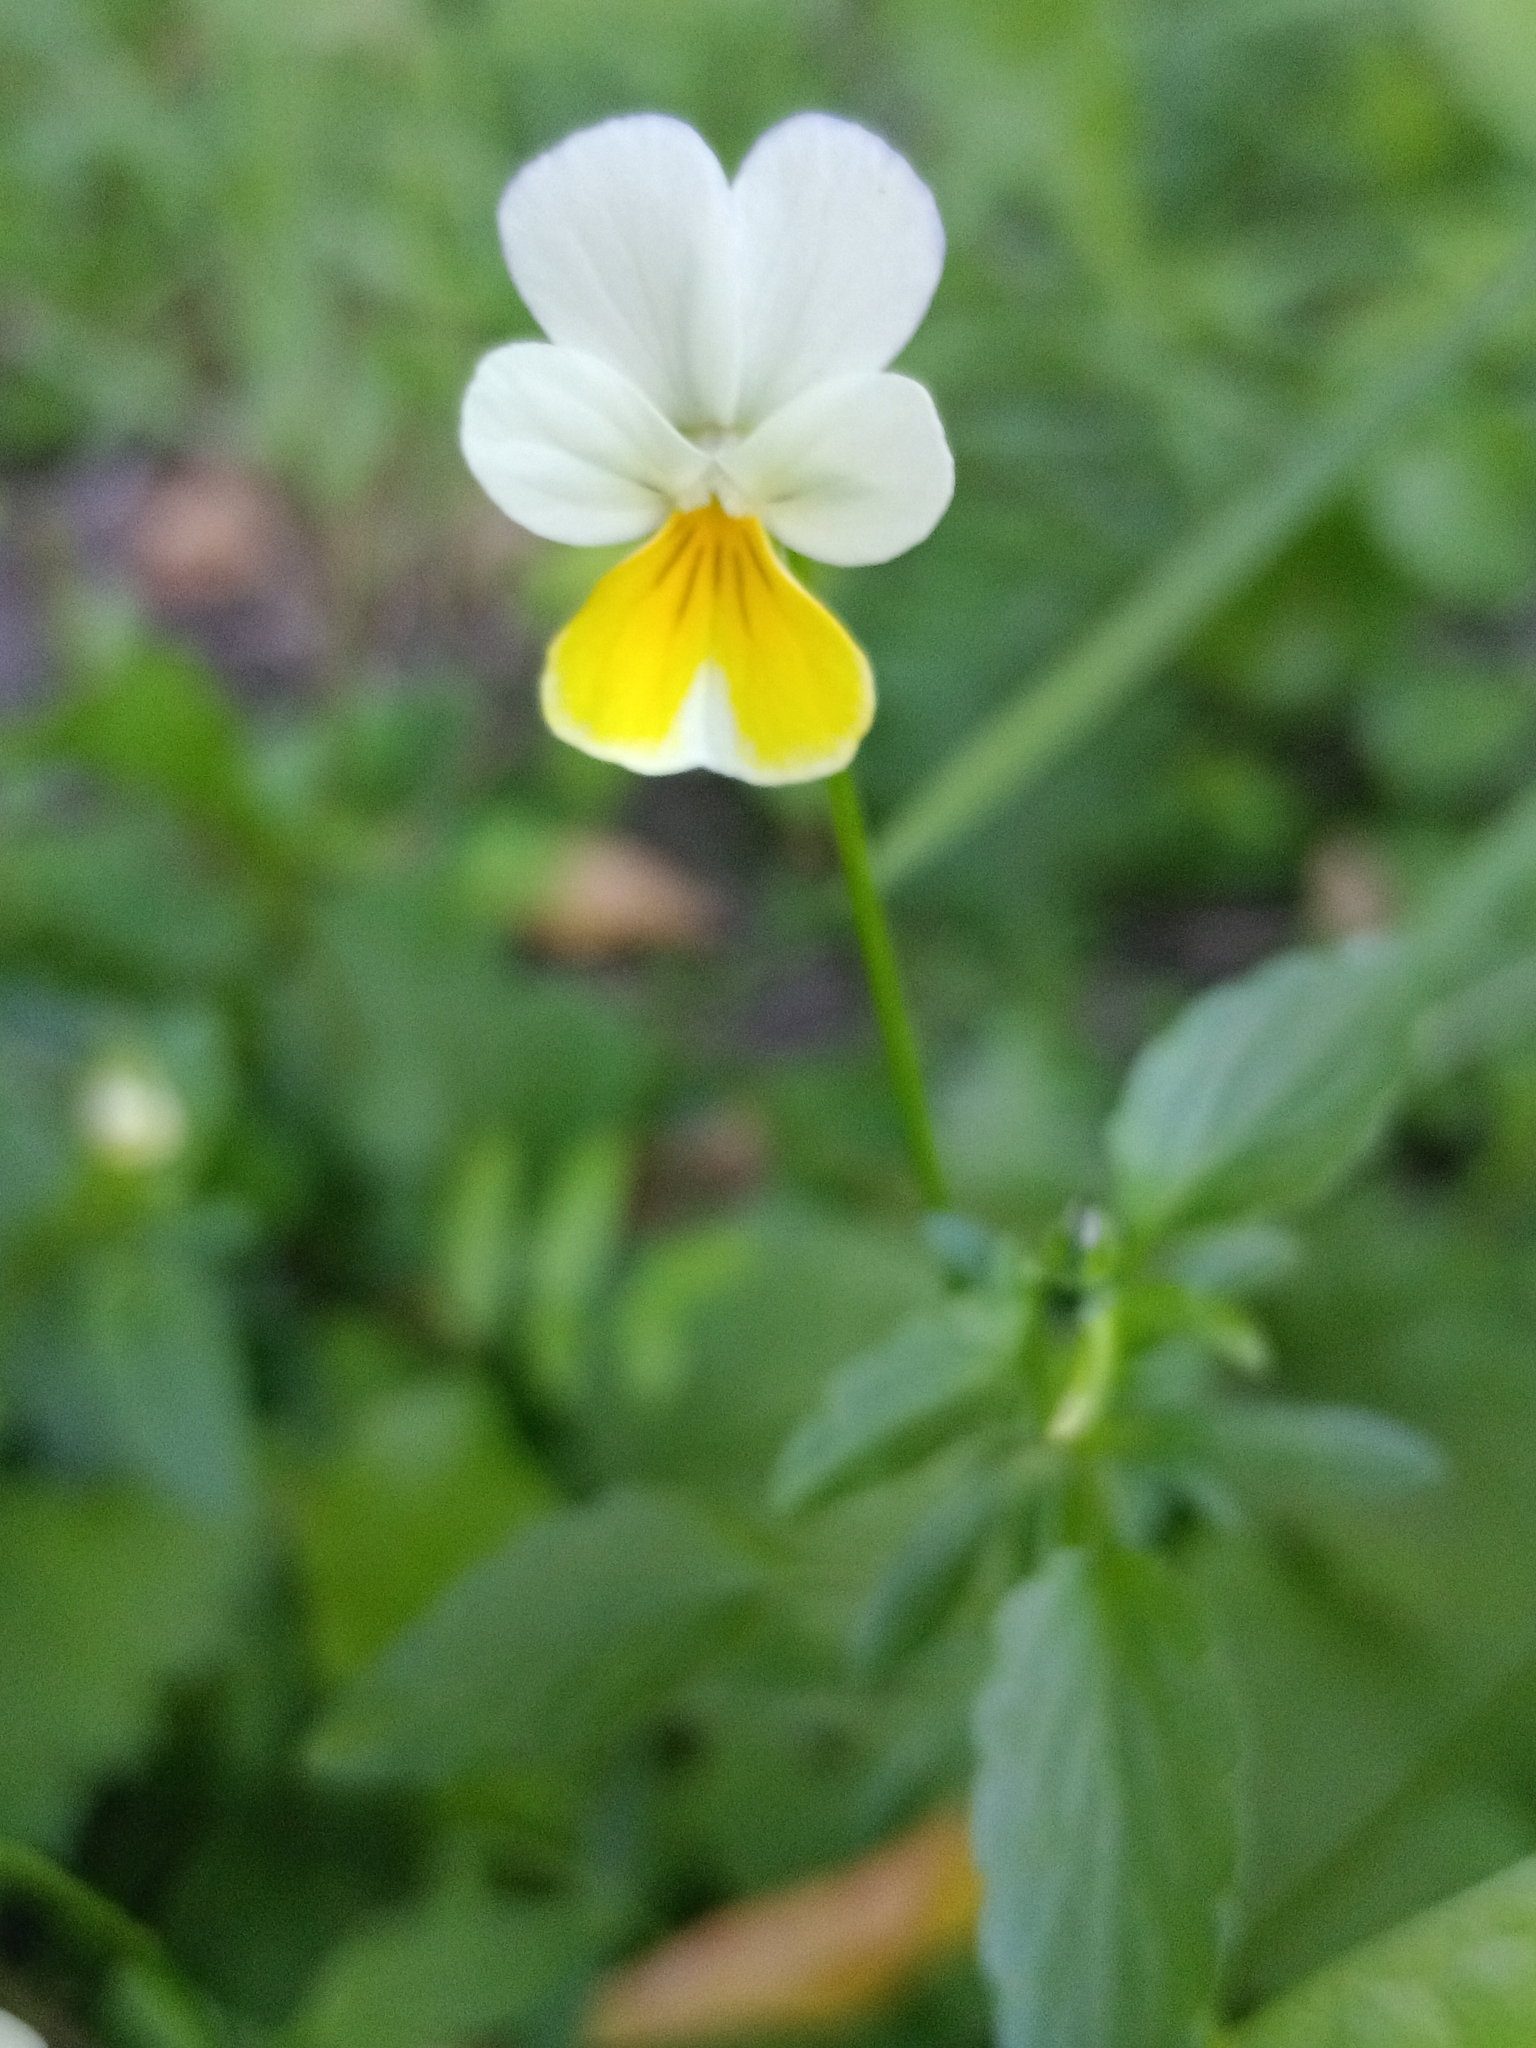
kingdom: Plantae
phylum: Tracheophyta
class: Magnoliopsida
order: Malpighiales
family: Violaceae
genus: Viola
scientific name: Viola arvensis
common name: Field pansy
